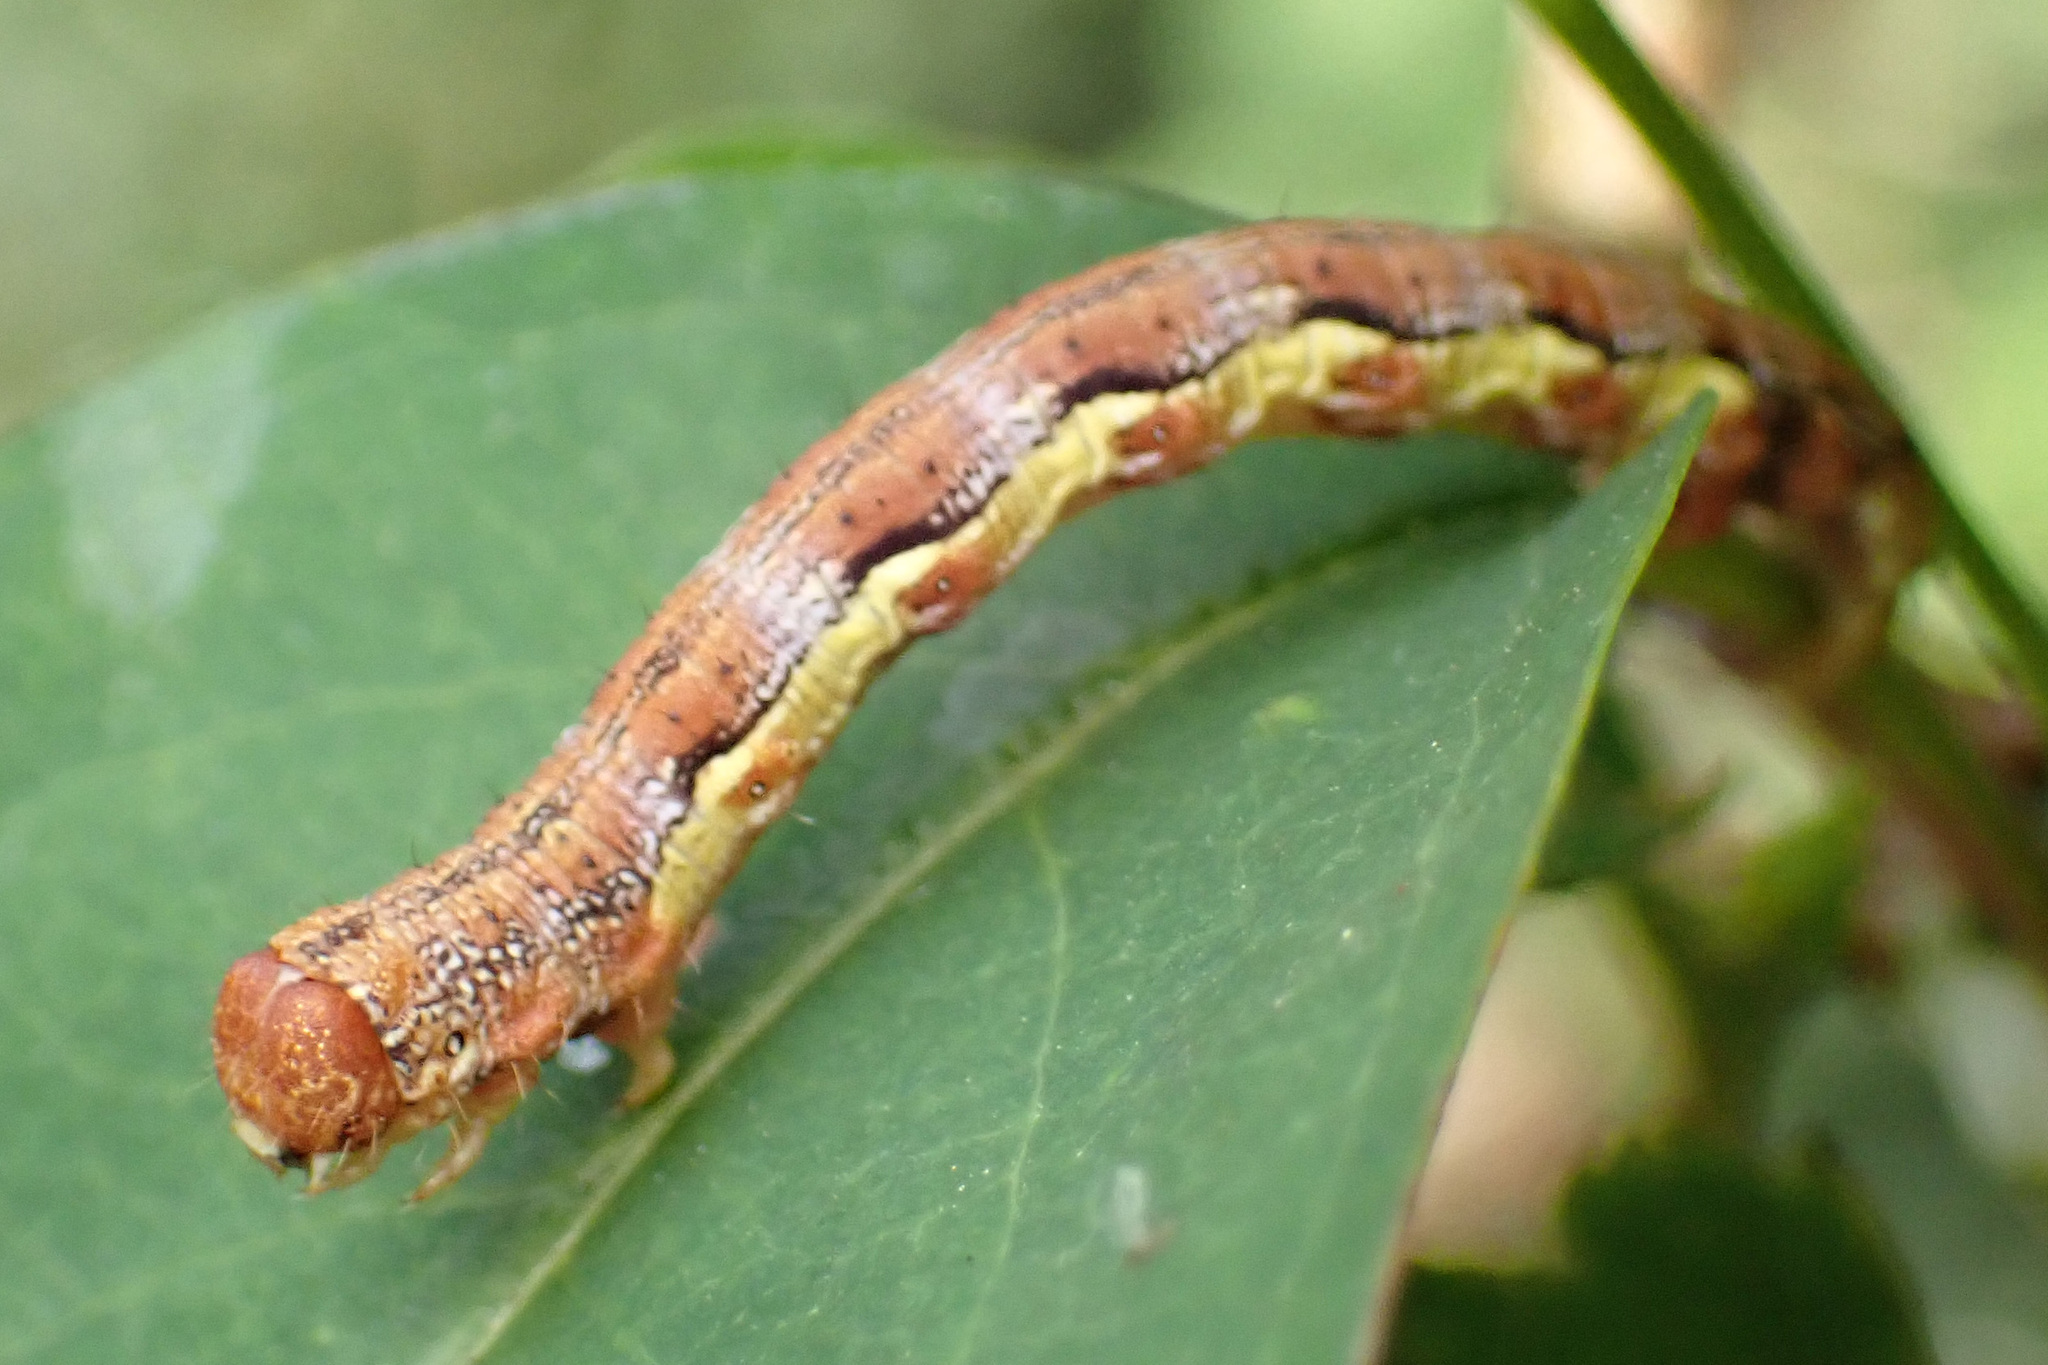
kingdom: Animalia
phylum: Arthropoda
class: Insecta
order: Lepidoptera
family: Geometridae
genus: Erannis
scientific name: Erannis defoliaria
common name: Mottled umber
